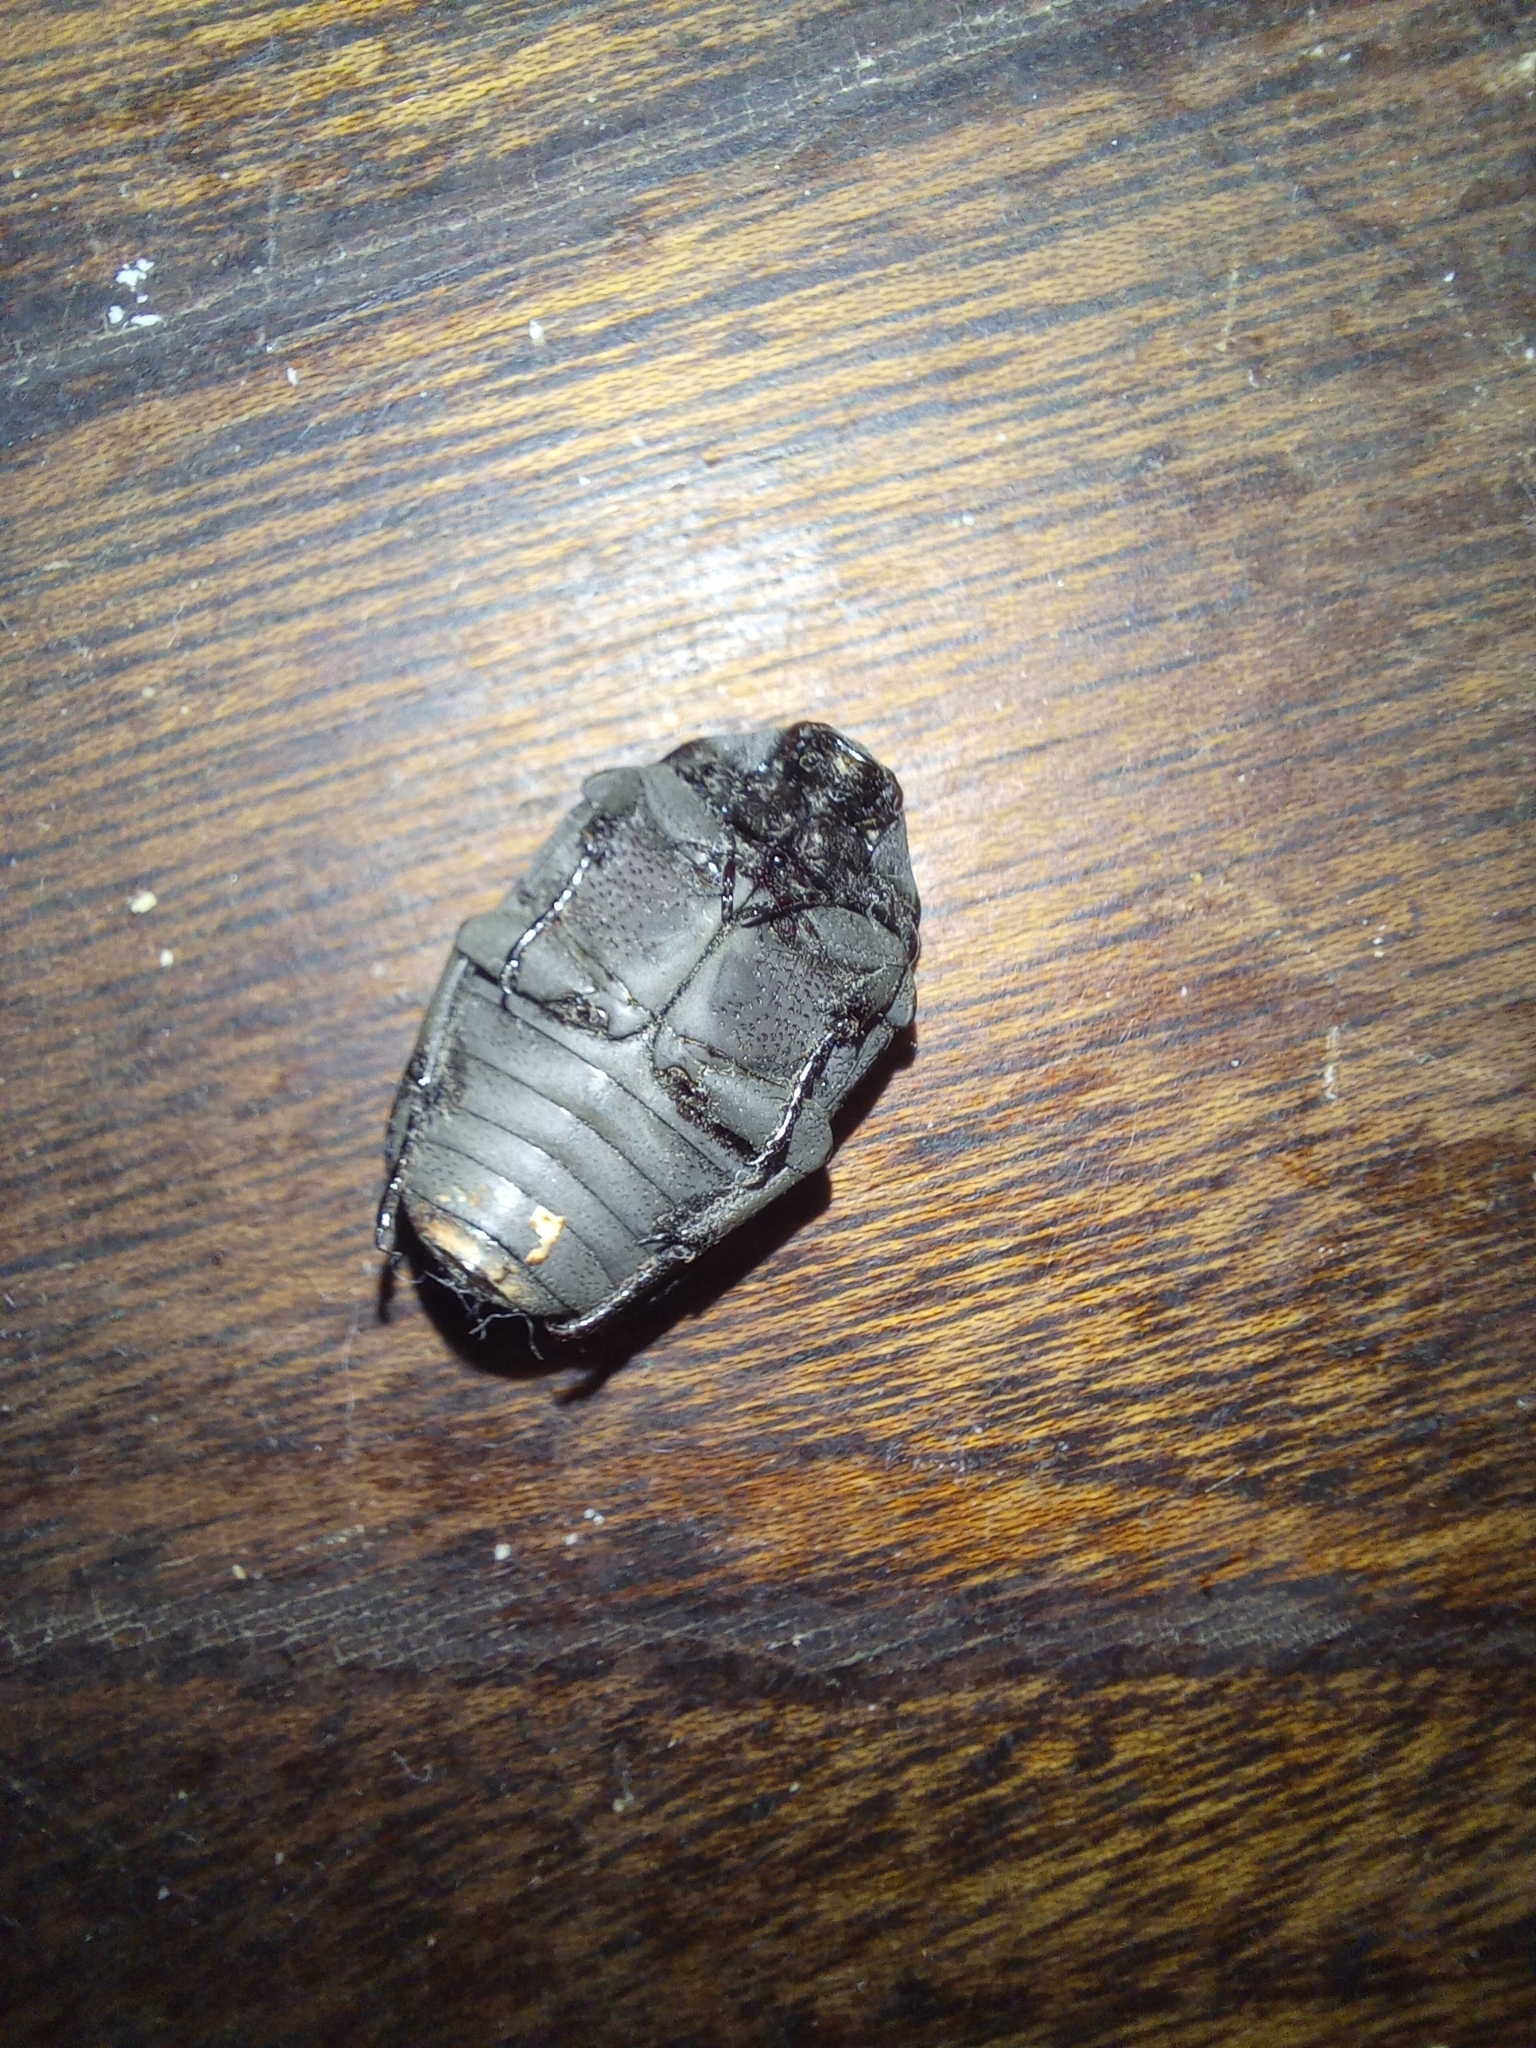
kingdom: Animalia
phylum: Arthropoda
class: Insecta
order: Coleoptera
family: Scarabaeidae
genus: Gymnetis
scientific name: Gymnetis pudibunda
